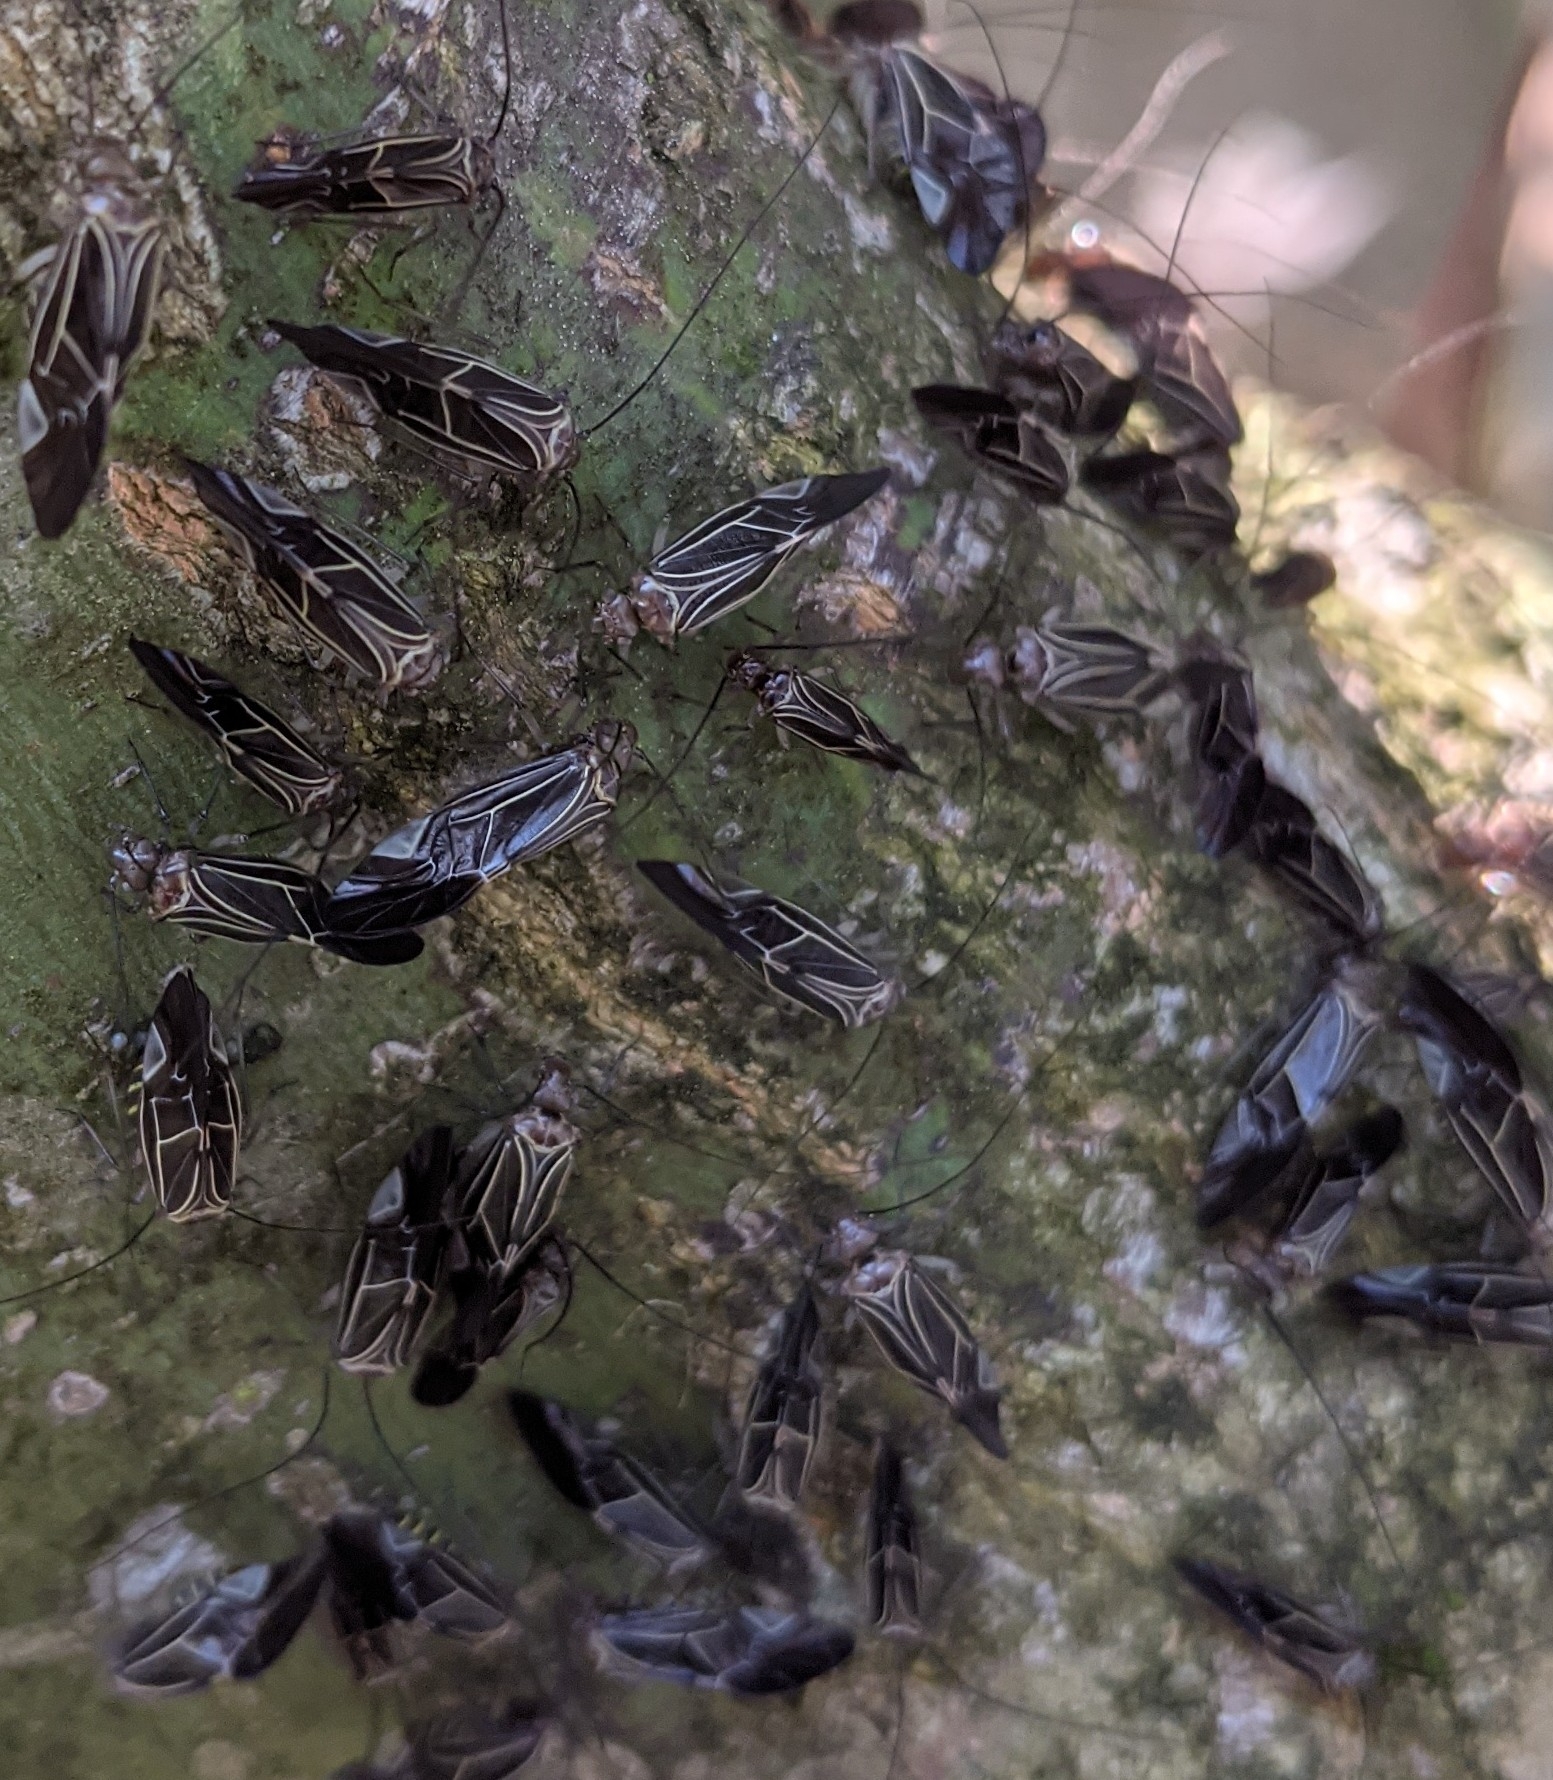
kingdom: Animalia
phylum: Arthropoda
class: Insecta
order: Psocodea
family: Psocidae
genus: Cerastipsocus
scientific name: Cerastipsocus venosus
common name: Tree cattle
